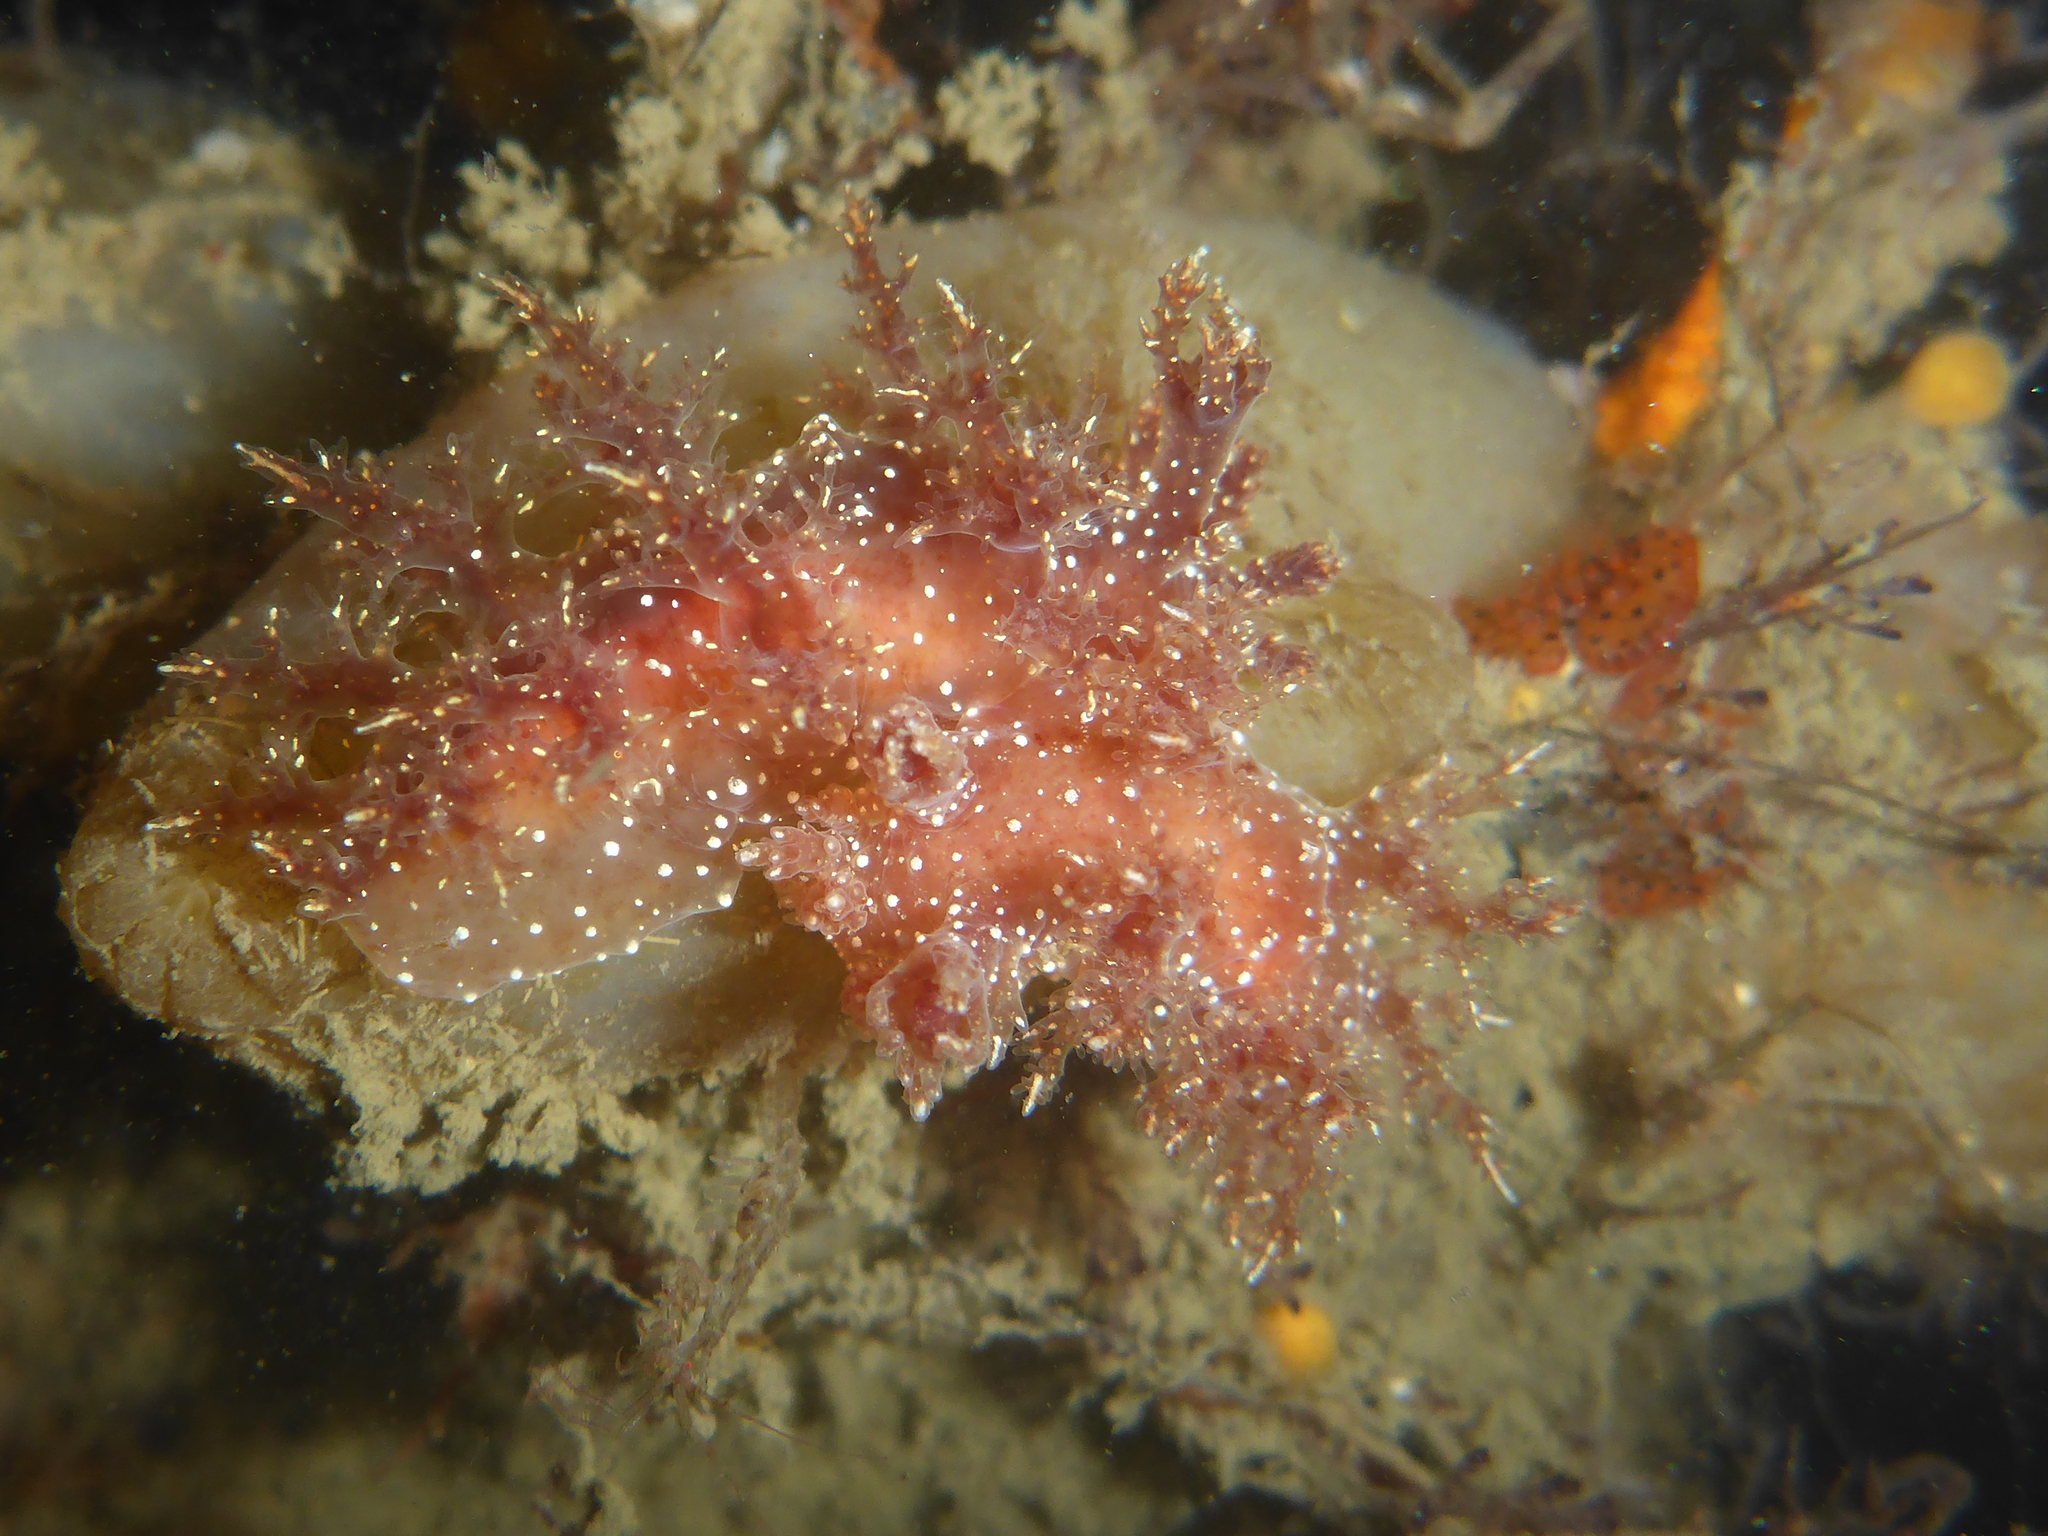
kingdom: Animalia
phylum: Mollusca
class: Gastropoda
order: Nudibranchia
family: Dendronotidae
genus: Dendronotus
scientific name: Dendronotus venustus
